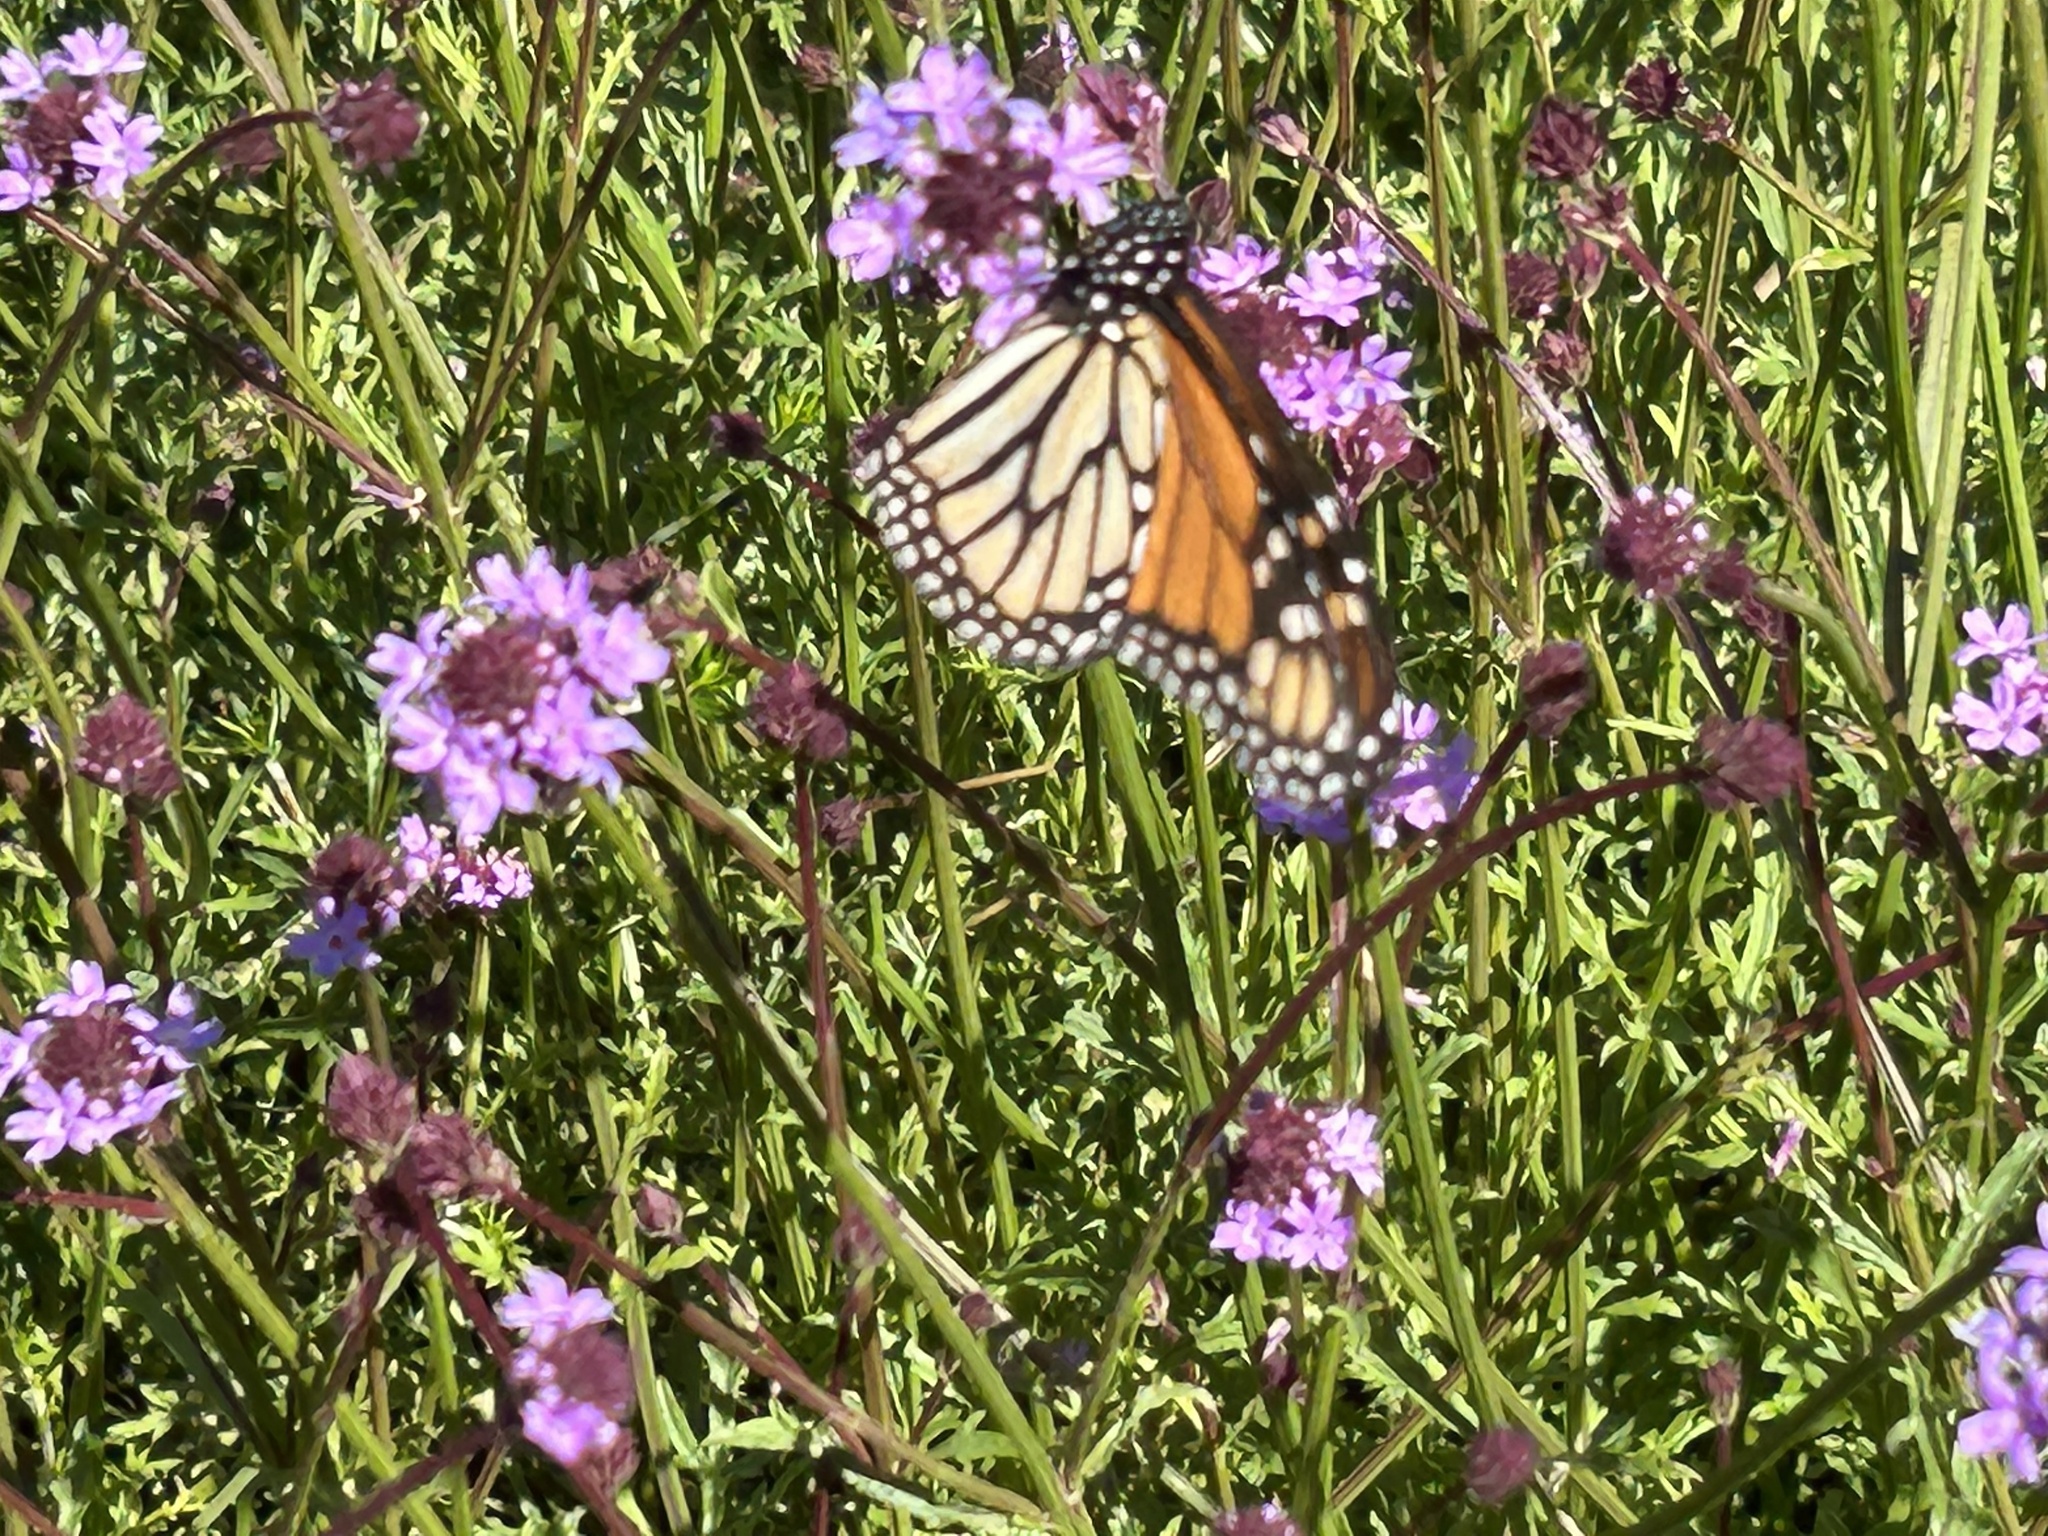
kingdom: Animalia
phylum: Arthropoda
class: Insecta
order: Lepidoptera
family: Nymphalidae
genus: Danaus
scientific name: Danaus plexippus
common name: Monarch
